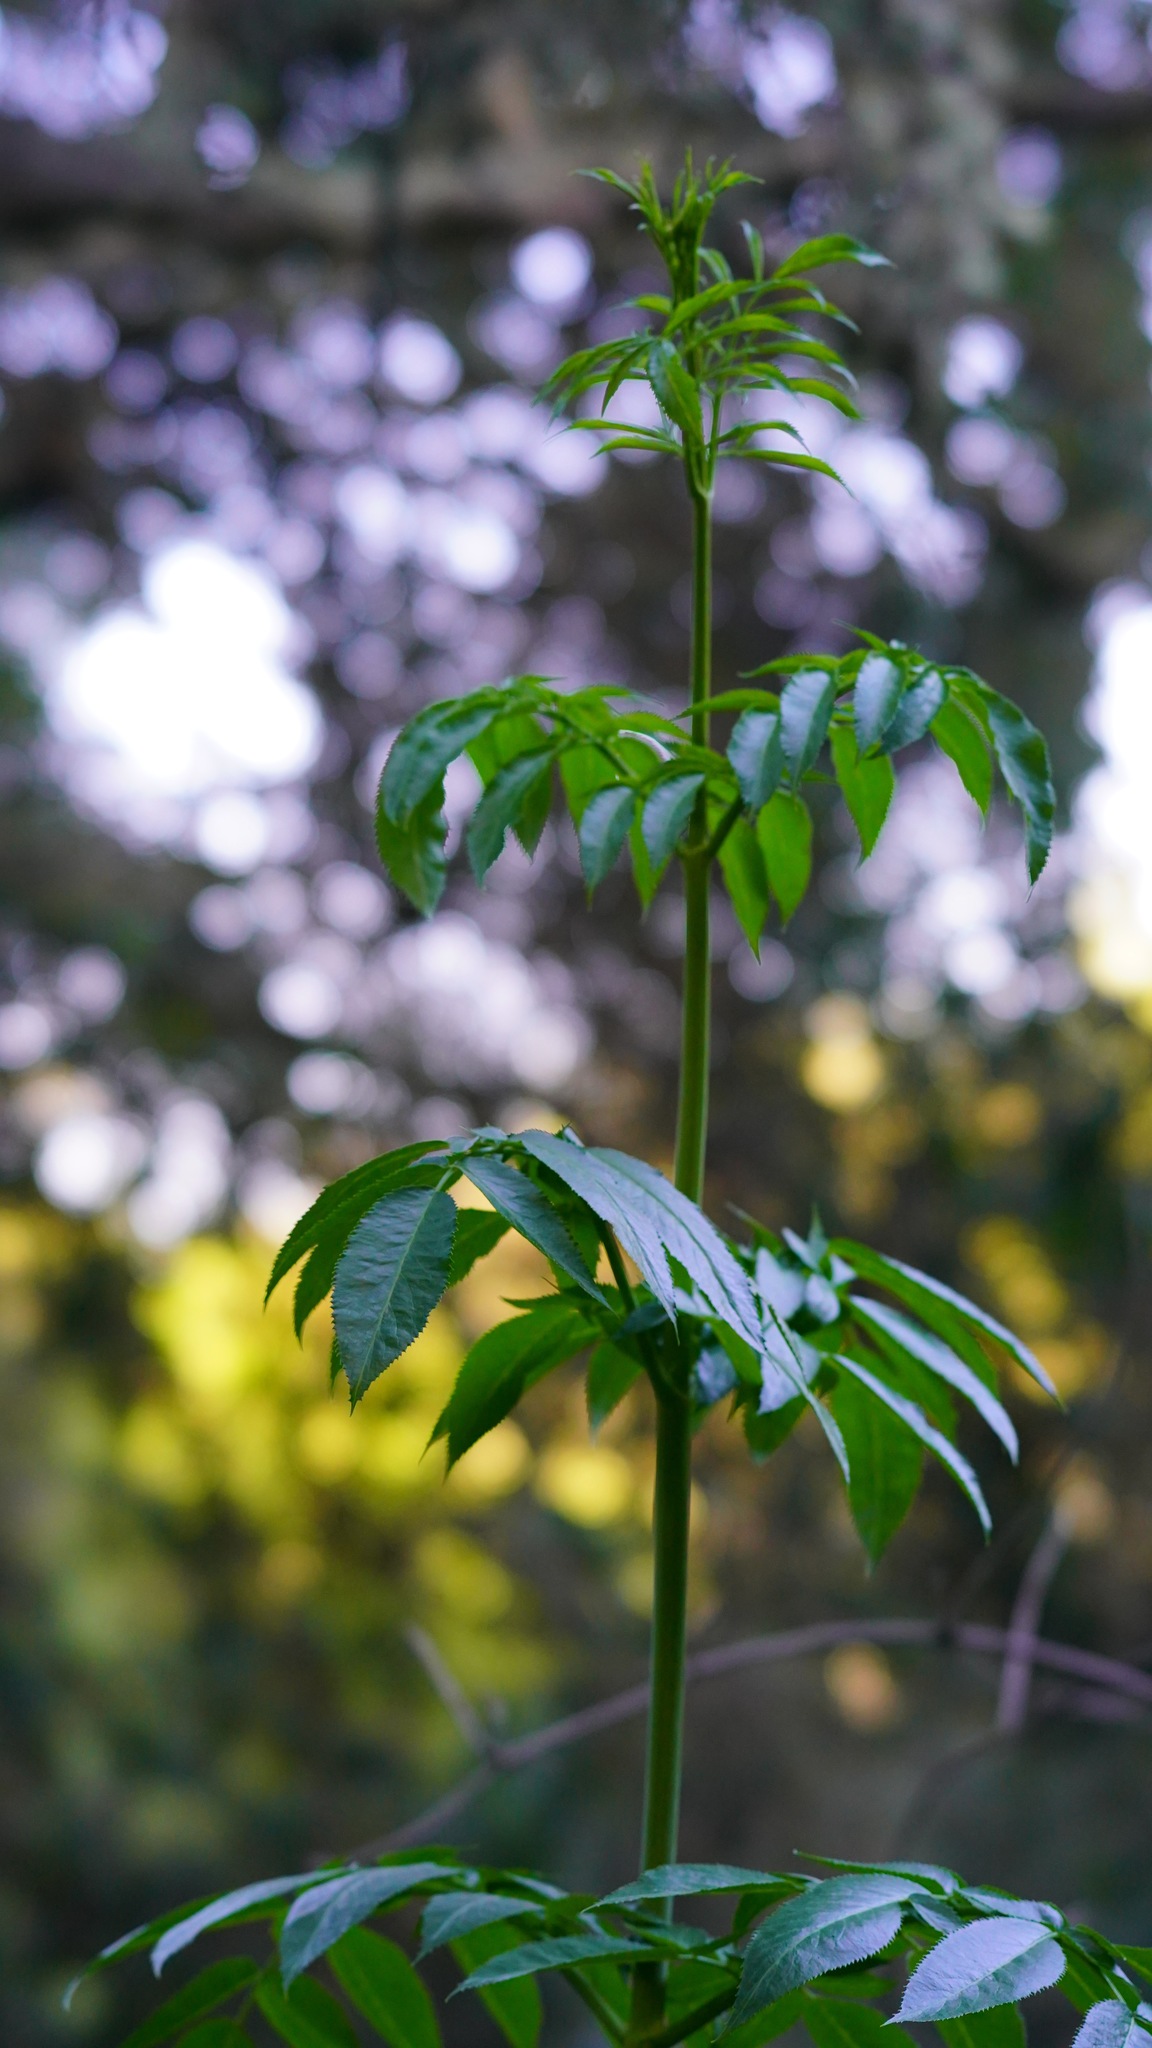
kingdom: Plantae
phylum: Tracheophyta
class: Magnoliopsida
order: Dipsacales
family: Viburnaceae
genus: Sambucus
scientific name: Sambucus cerulea
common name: Blue elder
